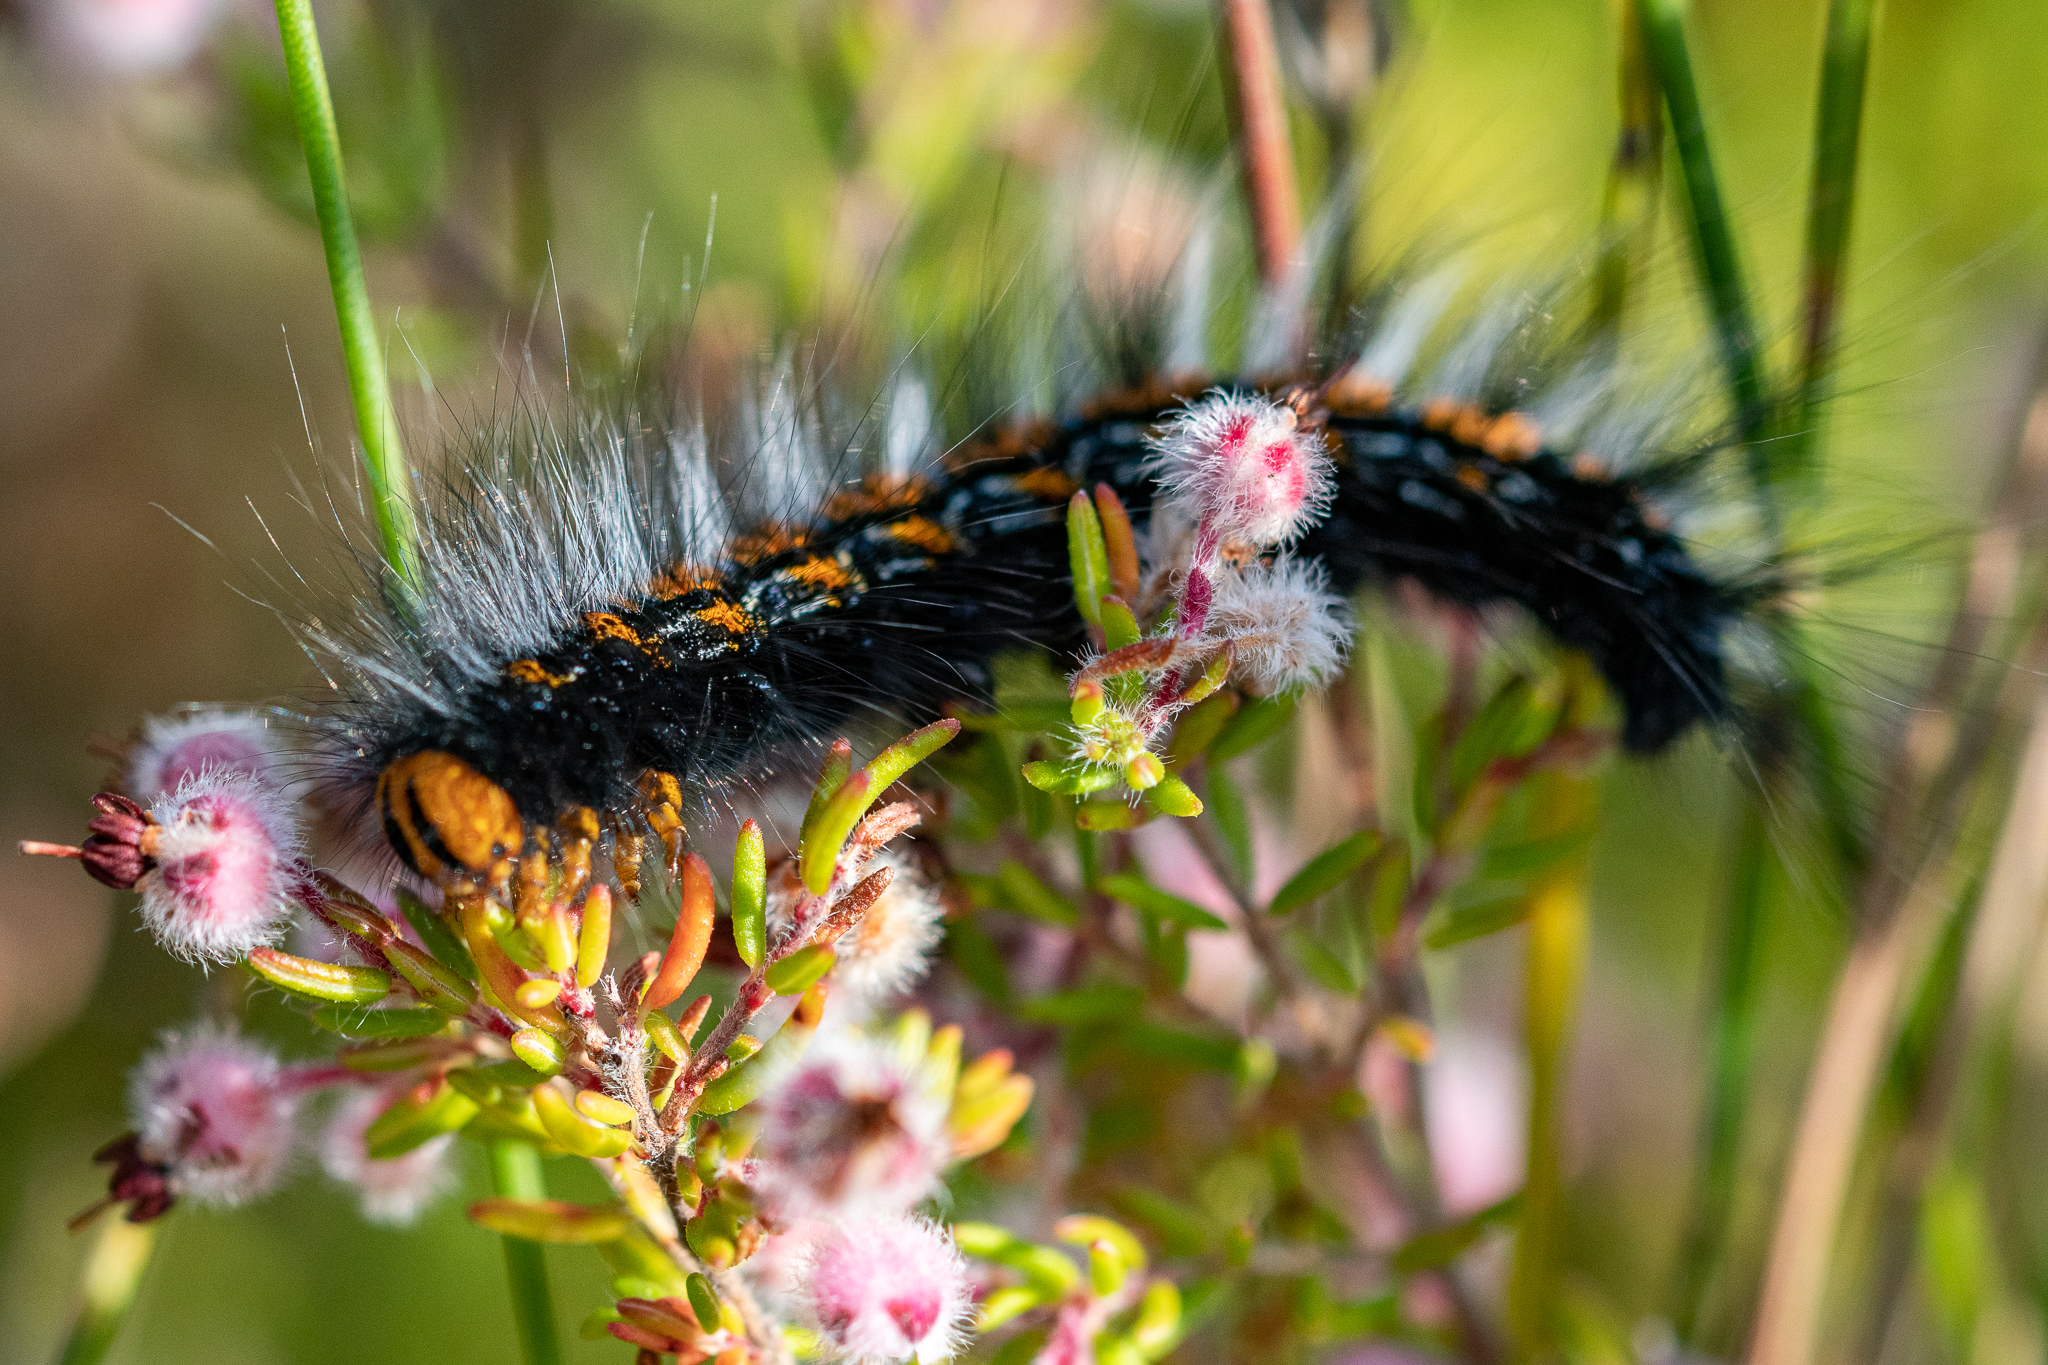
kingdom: Animalia
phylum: Arthropoda
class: Insecta
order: Lepidoptera
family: Lasiocampidae
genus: Mesocelis
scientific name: Mesocelis monticola
